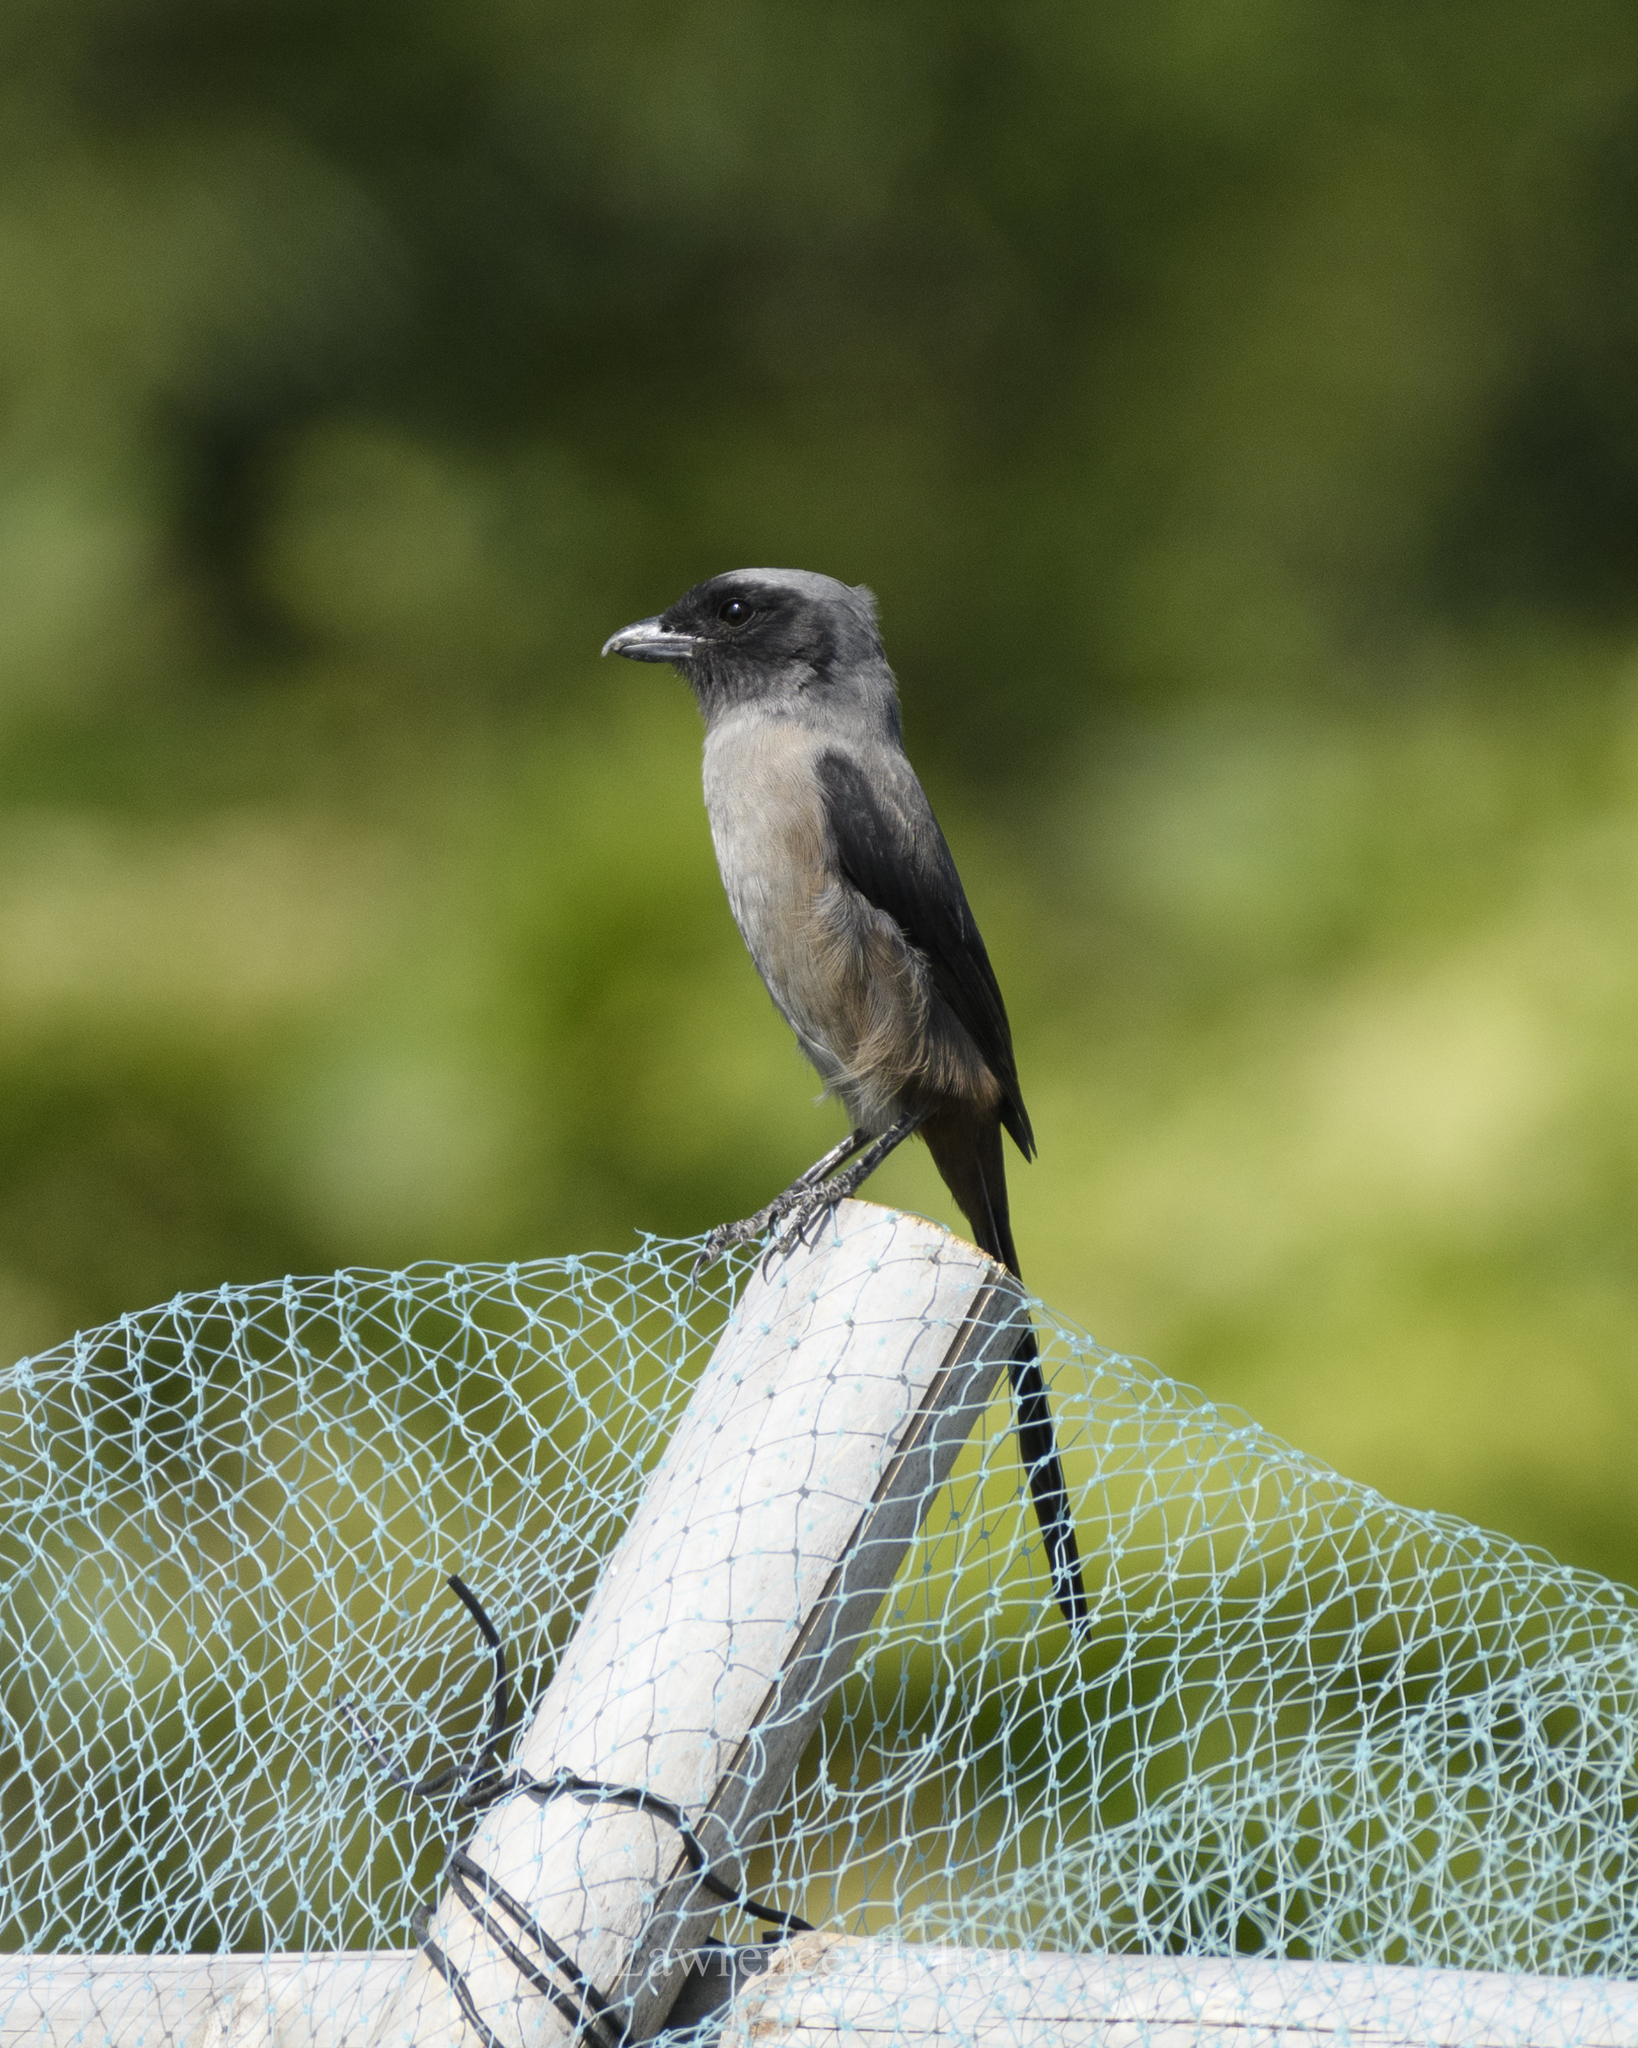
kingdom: Animalia
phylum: Chordata
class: Aves
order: Passeriformes
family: Laniidae
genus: Lanius
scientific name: Lanius schach
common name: Long-tailed shrike
